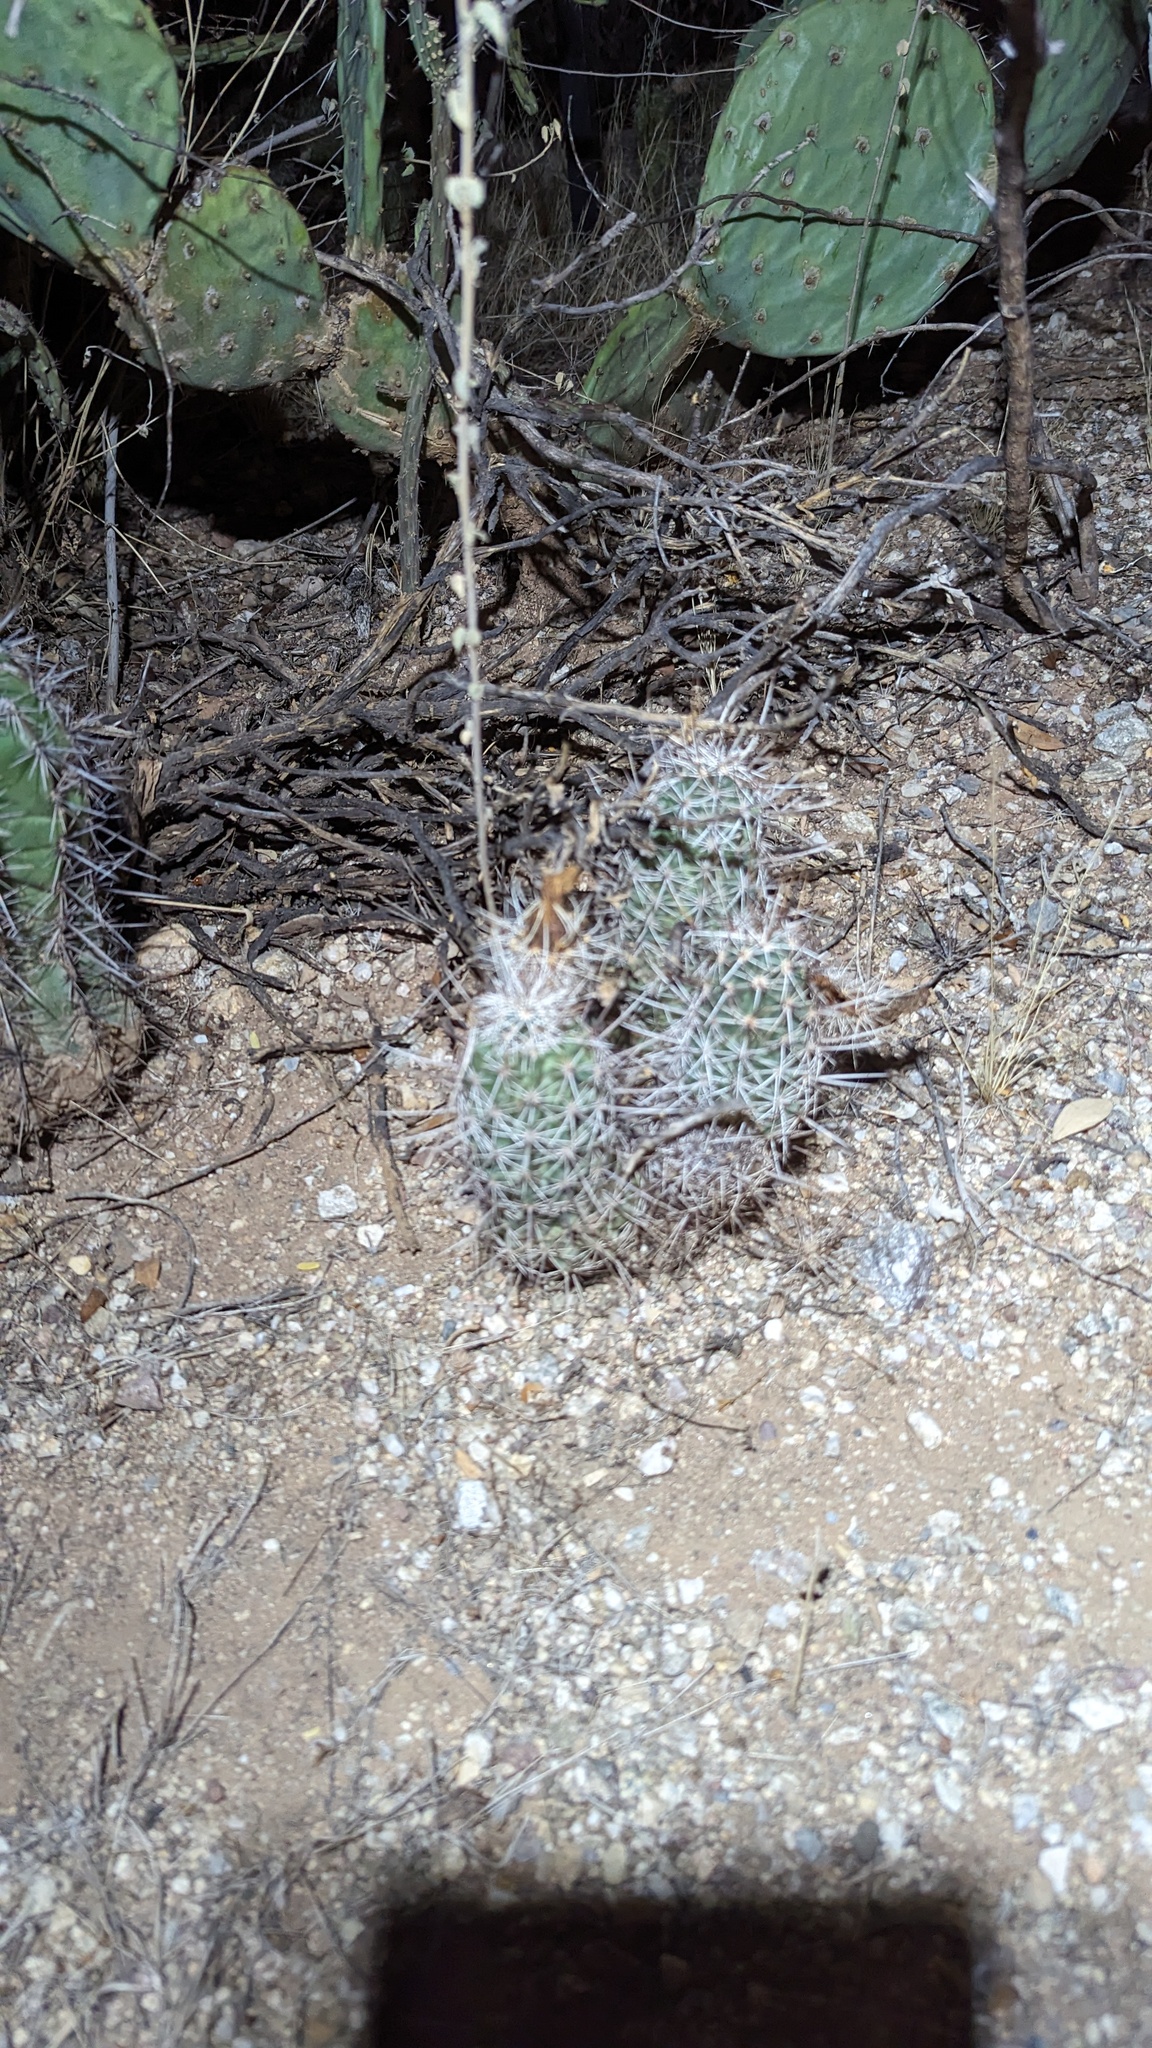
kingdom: Plantae
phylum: Tracheophyta
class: Magnoliopsida
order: Caryophyllales
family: Cactaceae
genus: Echinocereus
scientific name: Echinocereus fendleri
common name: Fendler's hedgehog cactus
